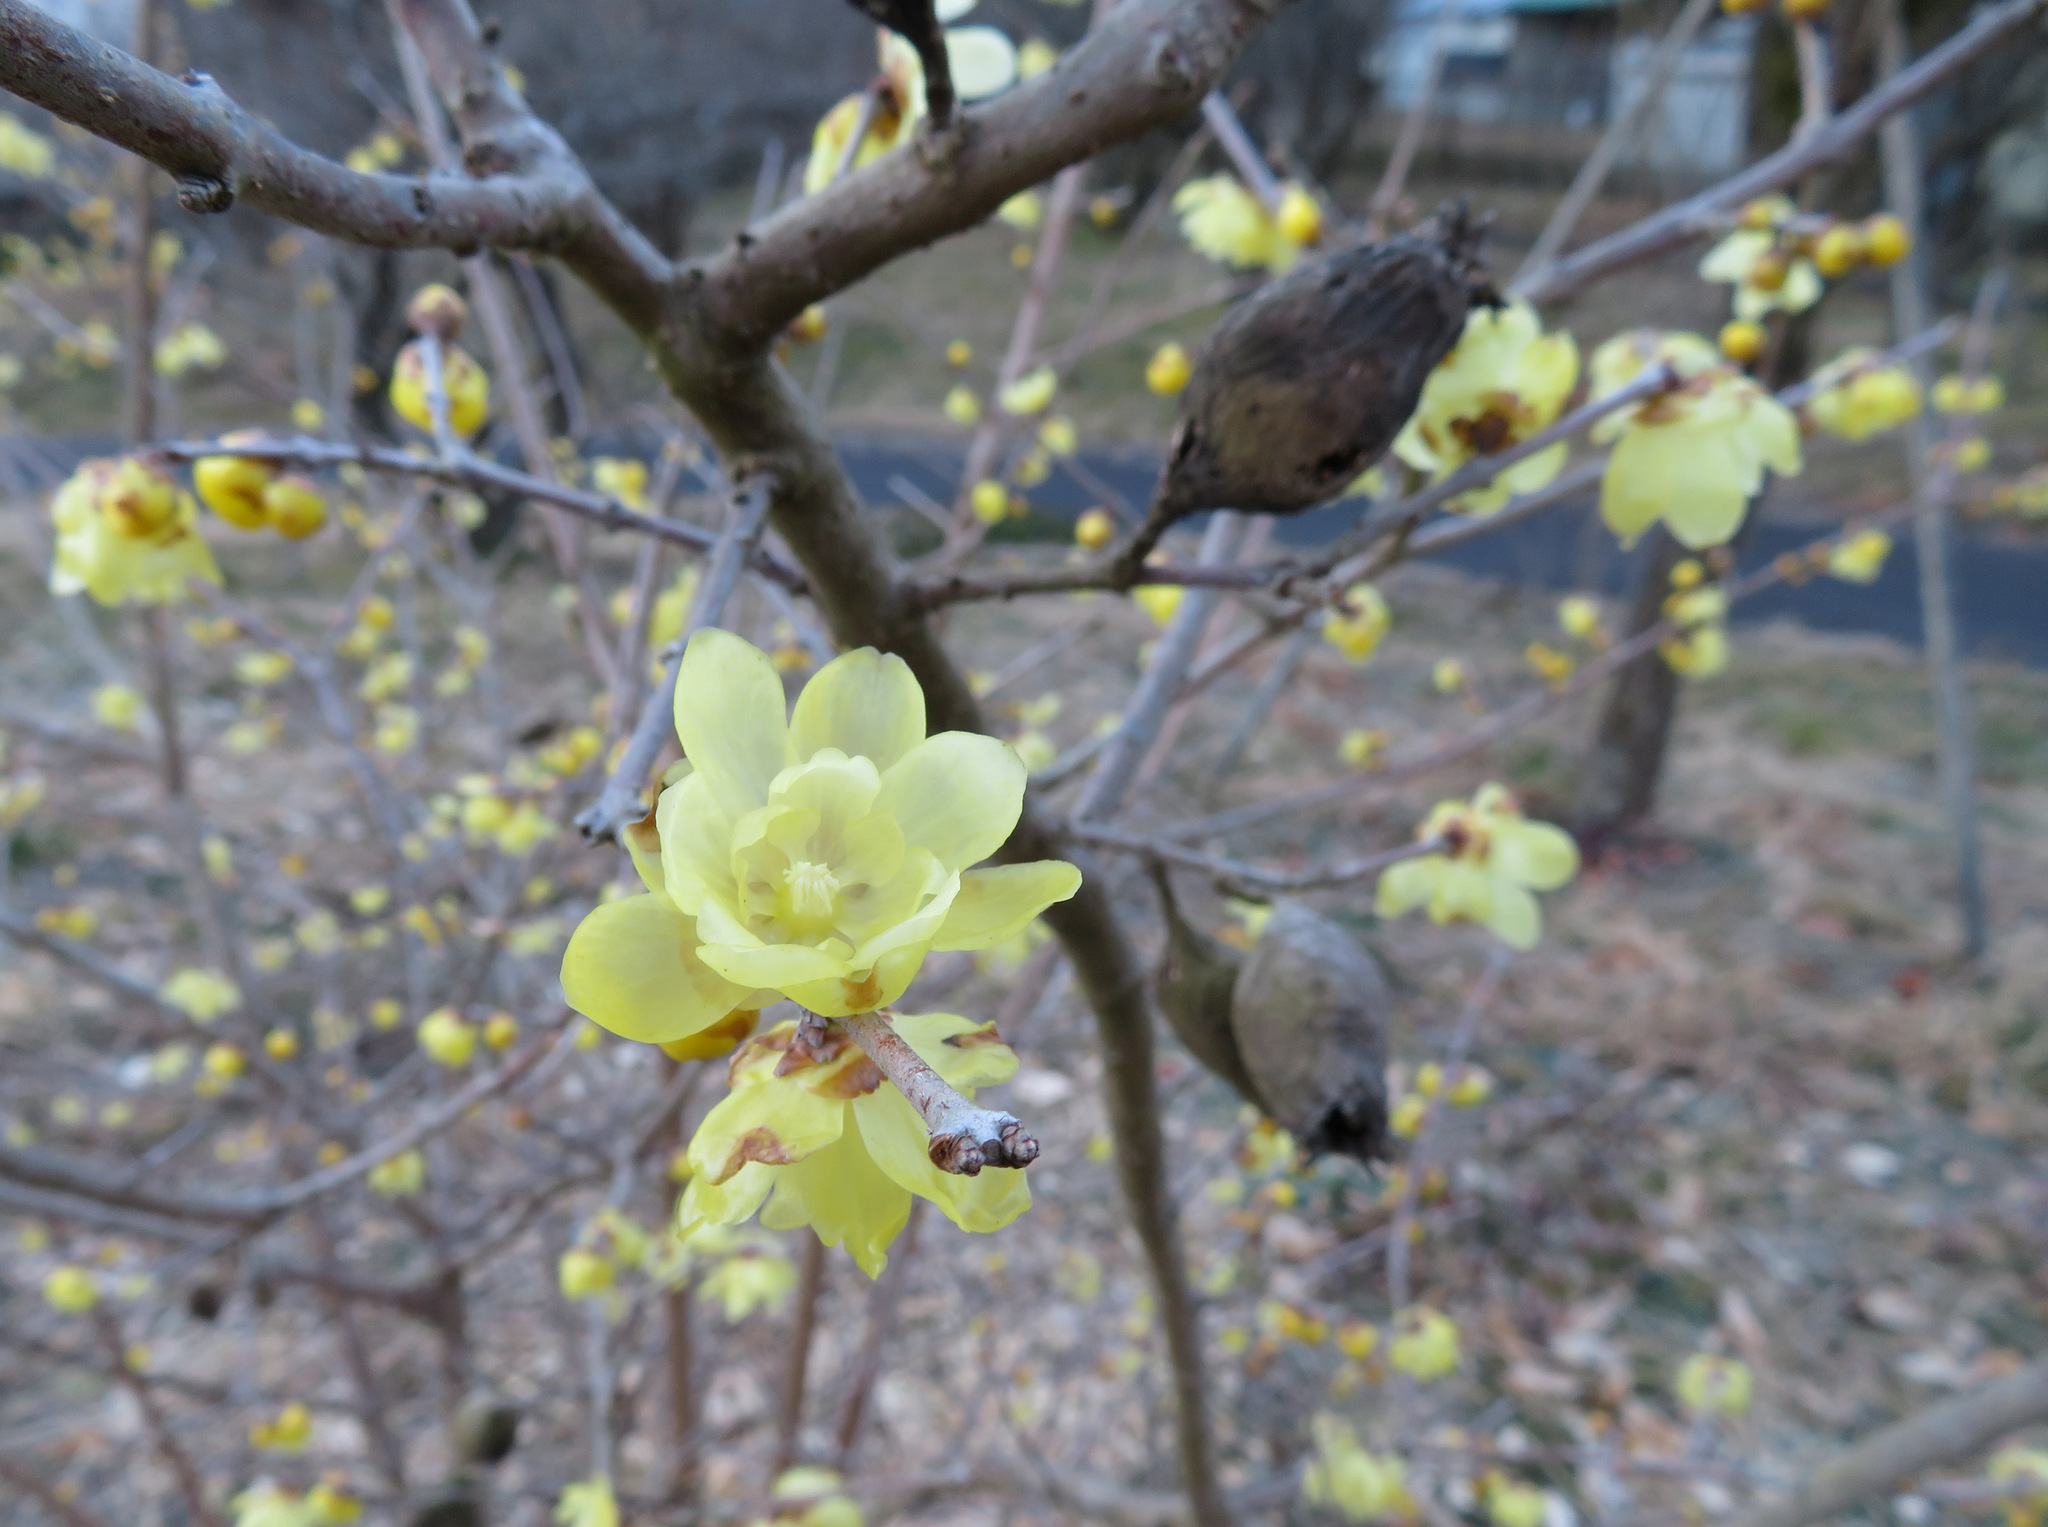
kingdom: Plantae
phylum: Tracheophyta
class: Magnoliopsida
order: Laurales
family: Calycanthaceae
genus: Chimonanthus
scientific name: Chimonanthus praecox
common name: Wintersweet
